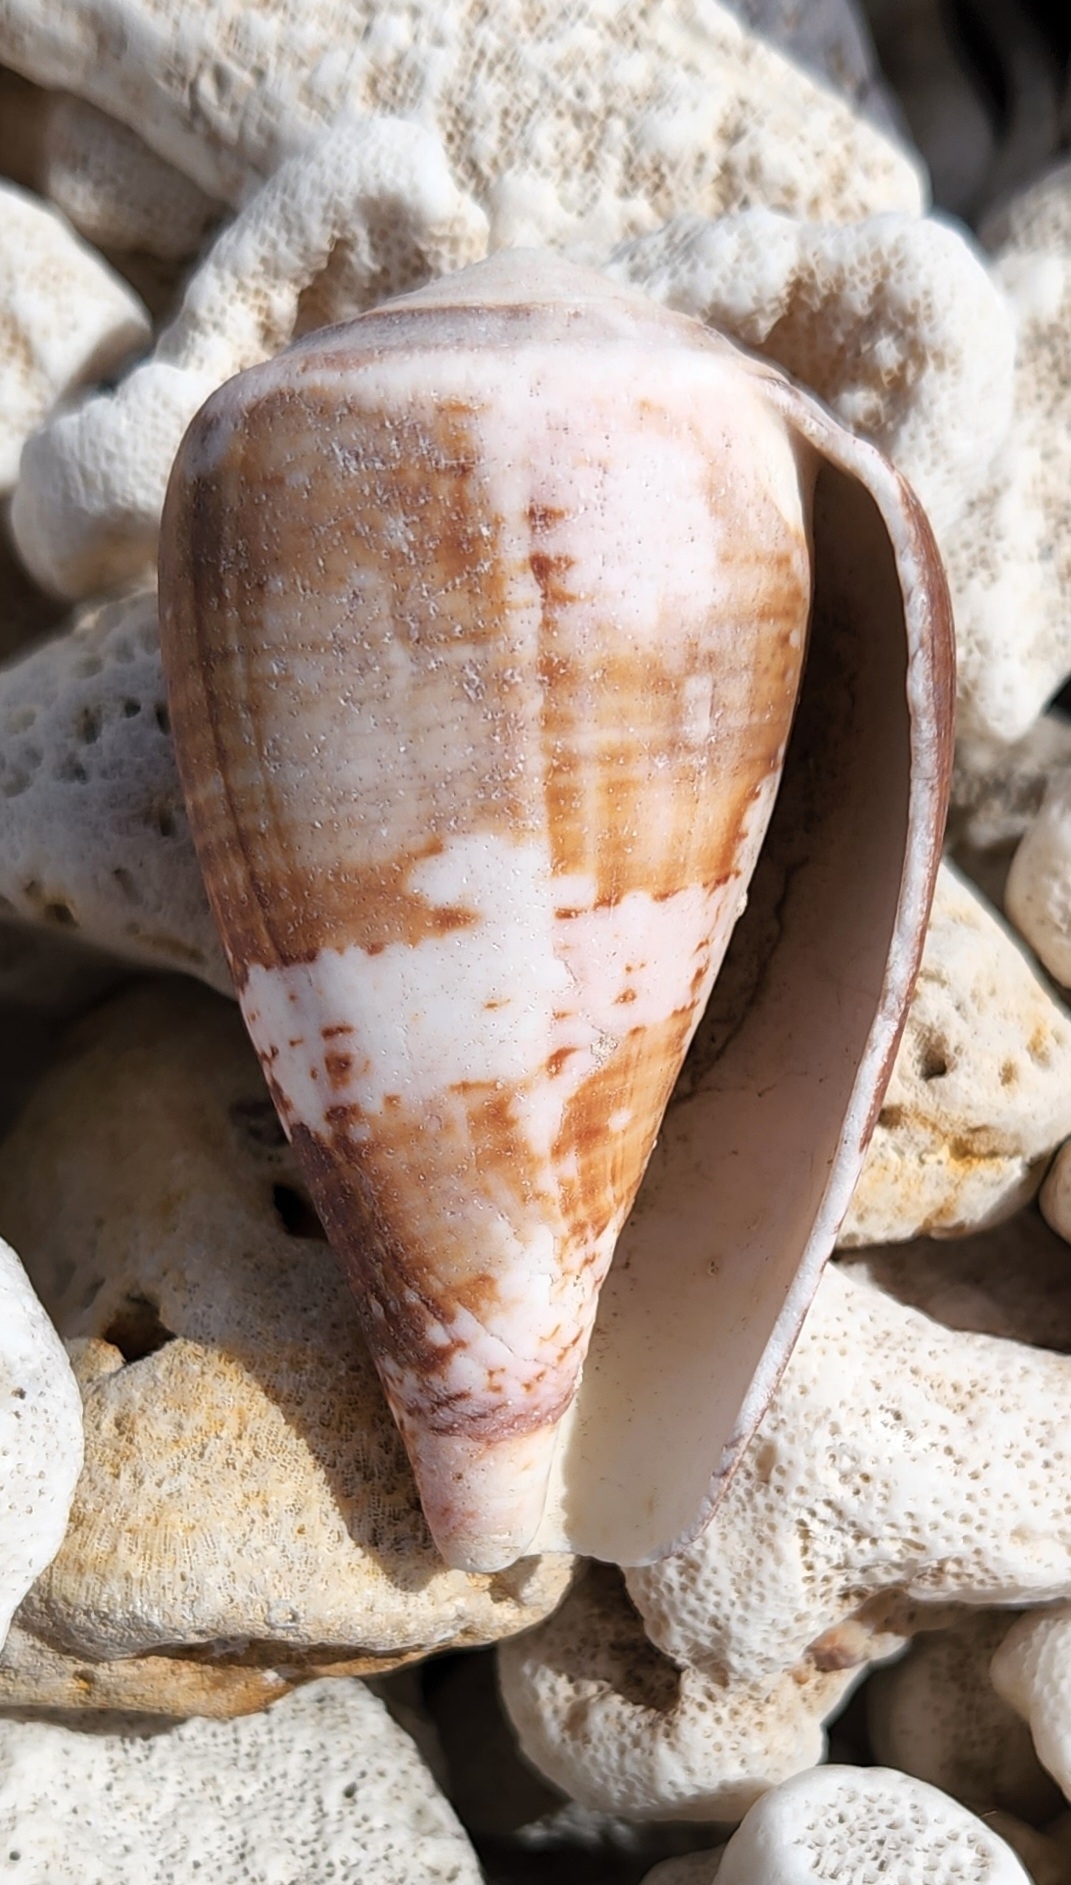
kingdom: Animalia
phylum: Mollusca
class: Gastropoda
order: Neogastropoda
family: Conidae
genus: Conus
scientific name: Conus purpurascens
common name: Purple cone
